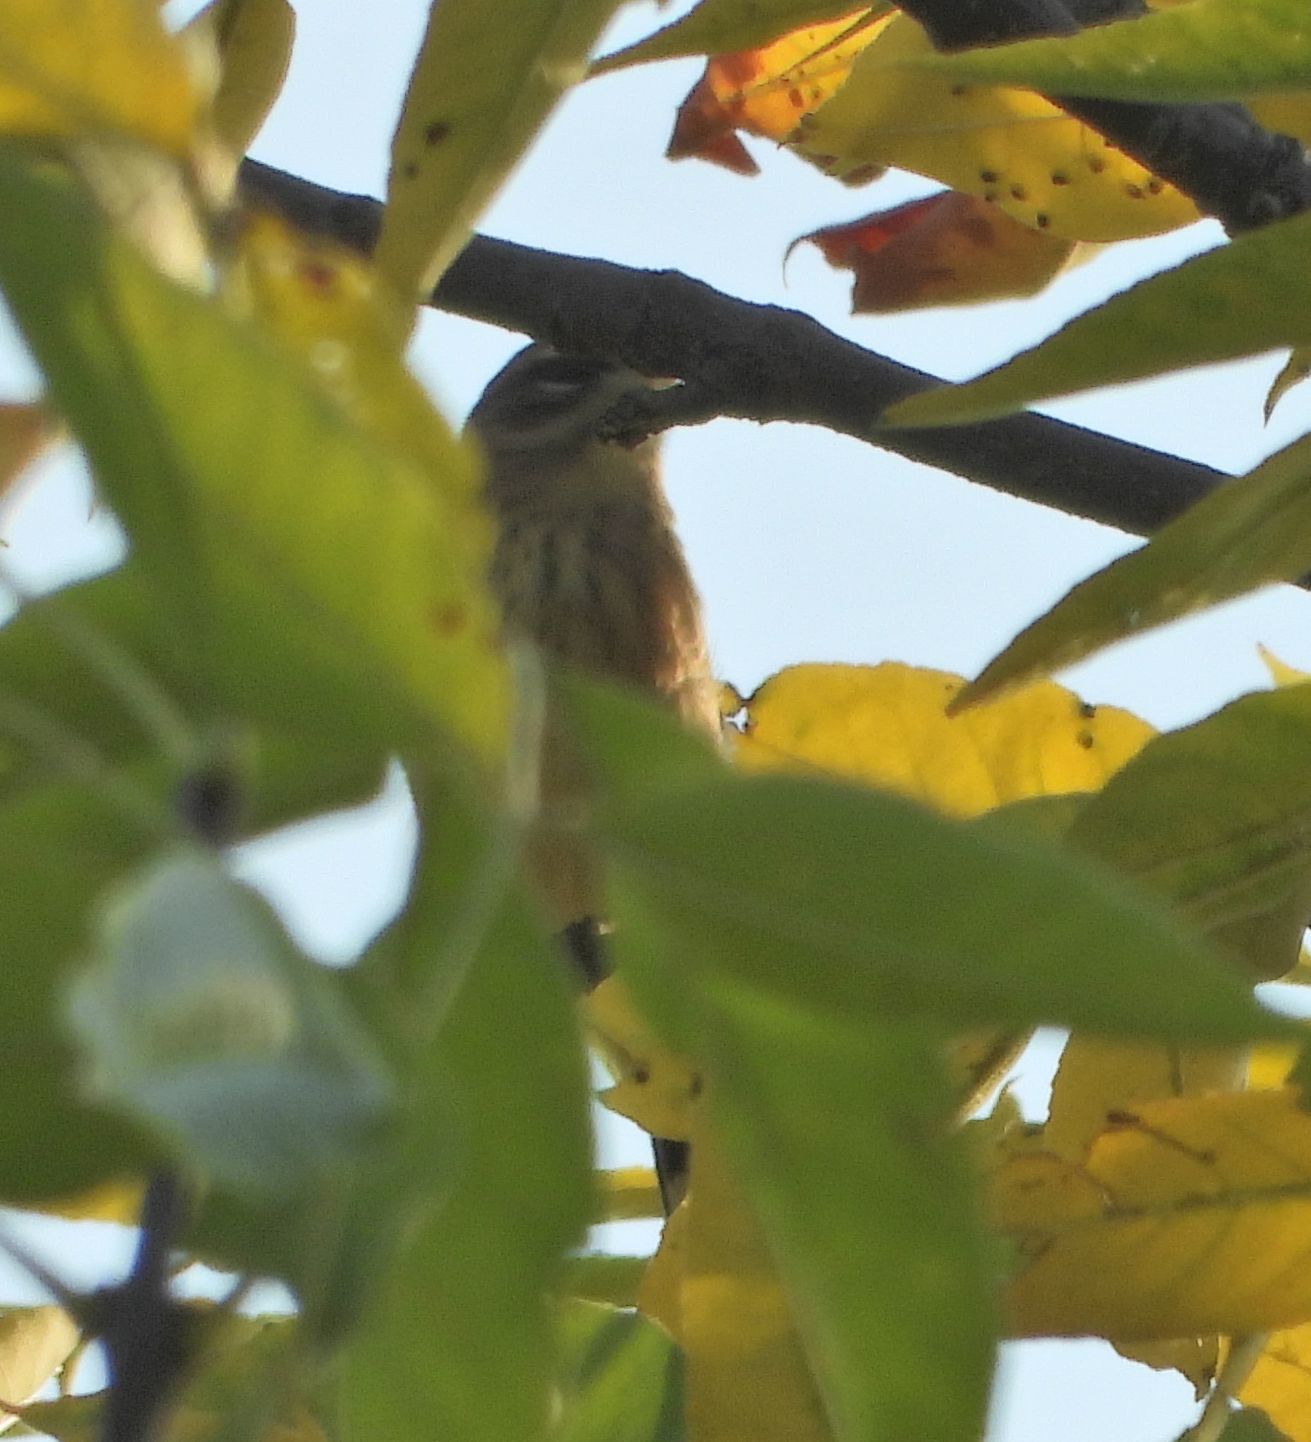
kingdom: Animalia
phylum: Chordata
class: Aves
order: Passeriformes
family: Parulidae
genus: Setophaga
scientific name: Setophaga coronata
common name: Myrtle warbler
